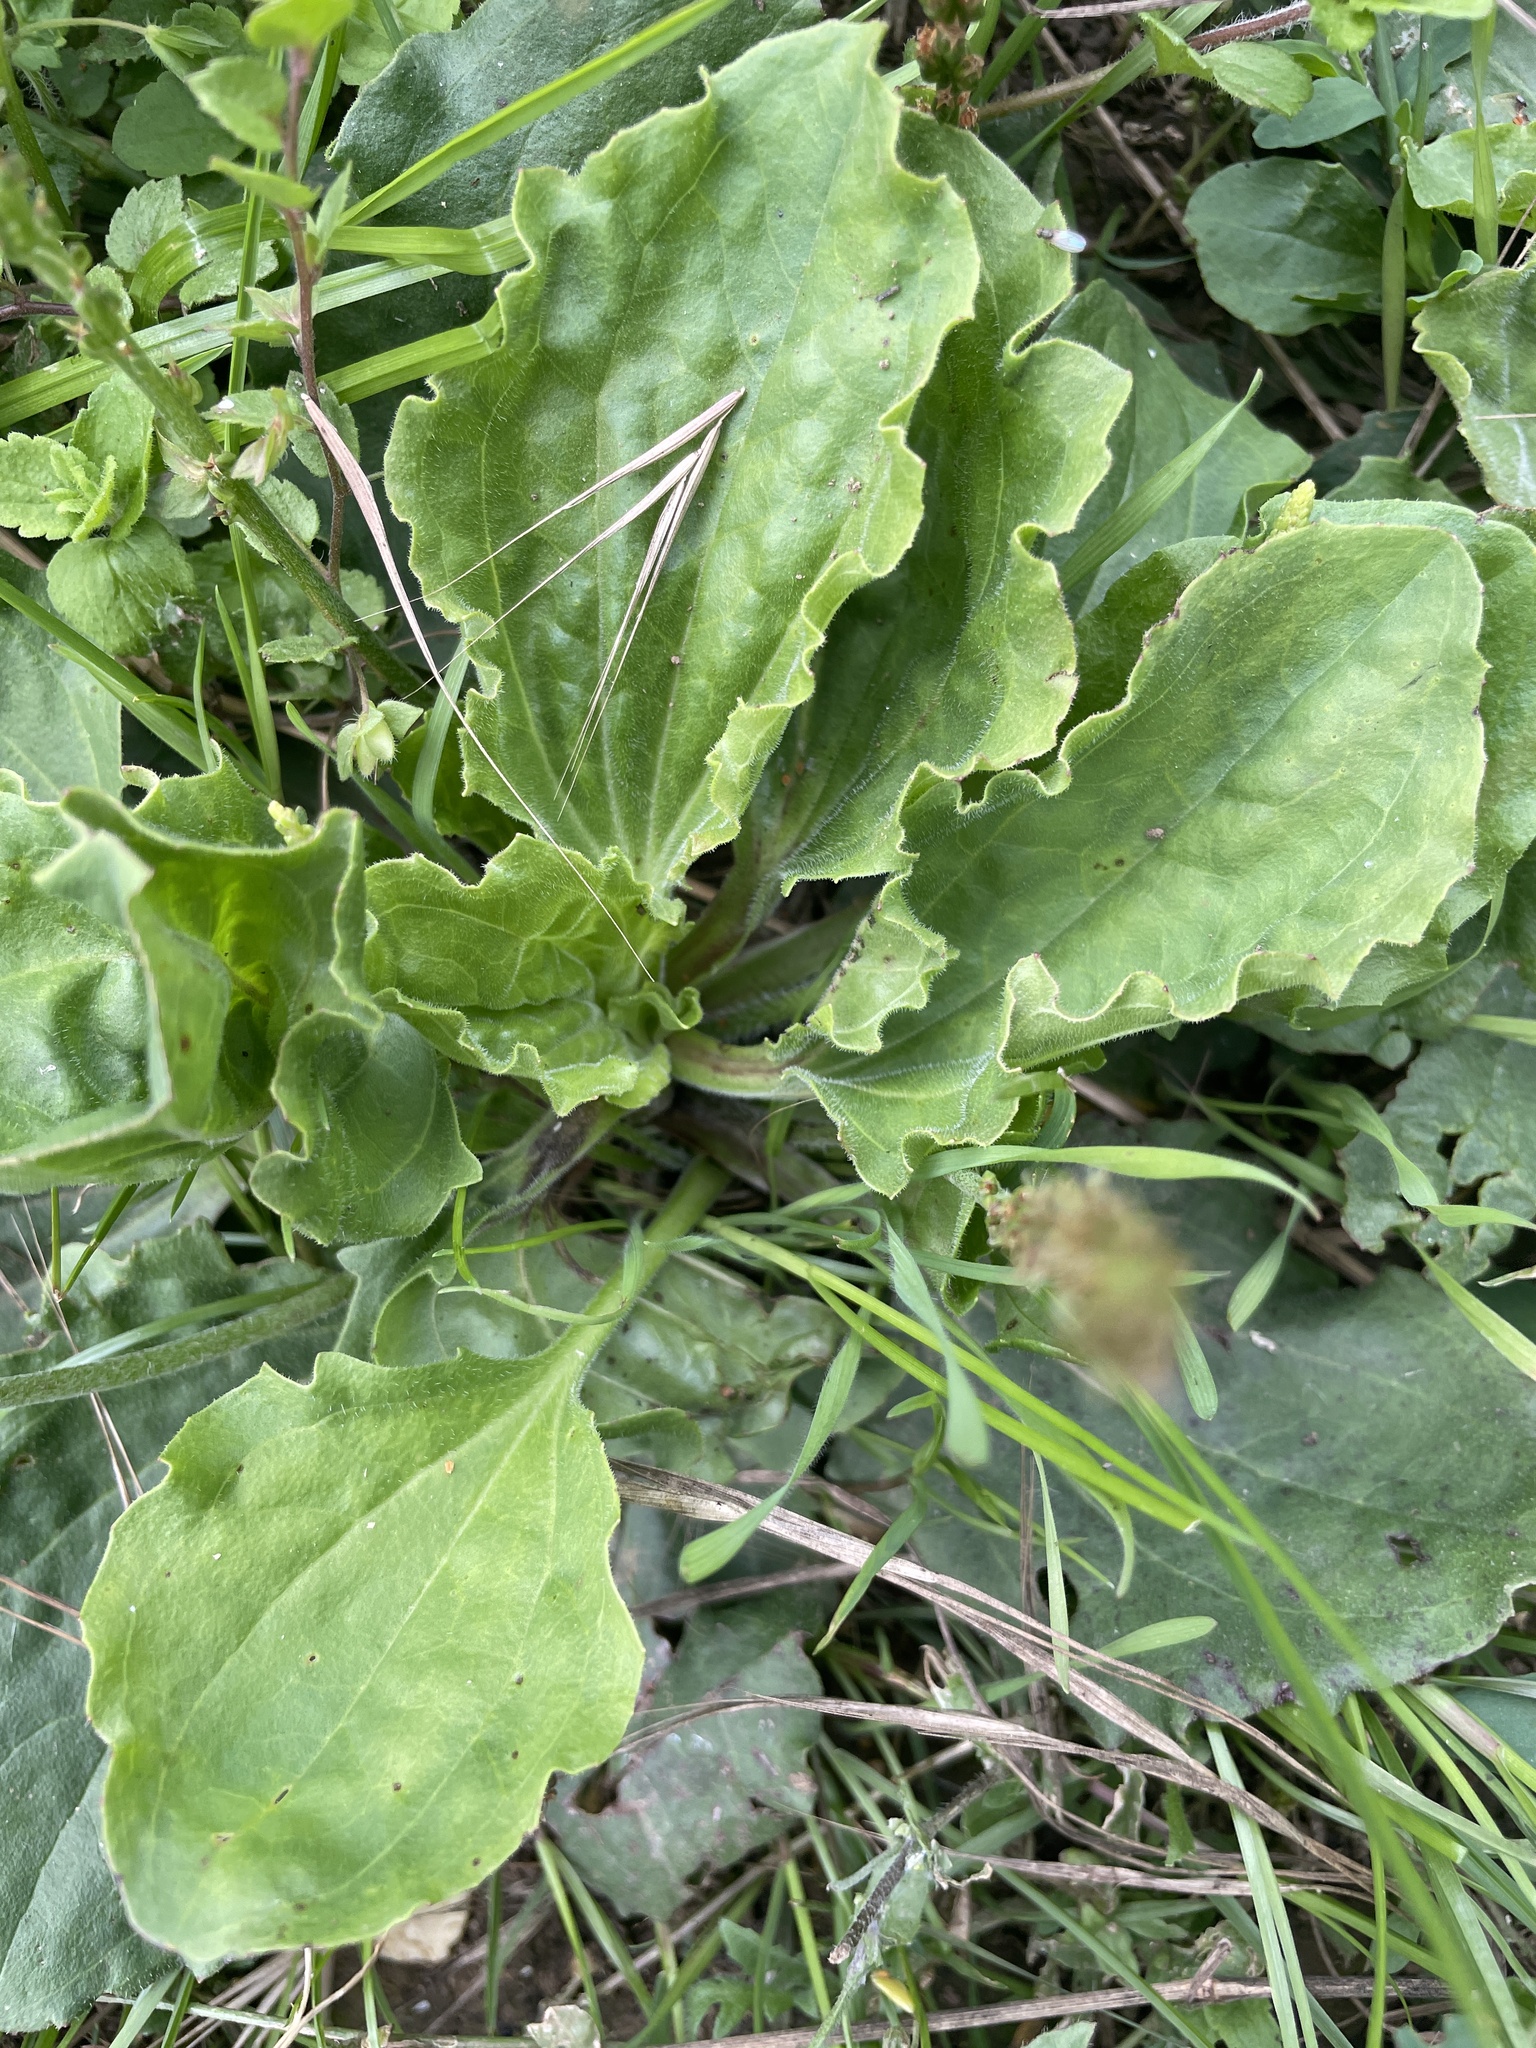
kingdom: Plantae
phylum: Tracheophyta
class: Magnoliopsida
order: Lamiales
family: Plantaginaceae
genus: Plantago
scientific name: Plantago major
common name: Common plantain
